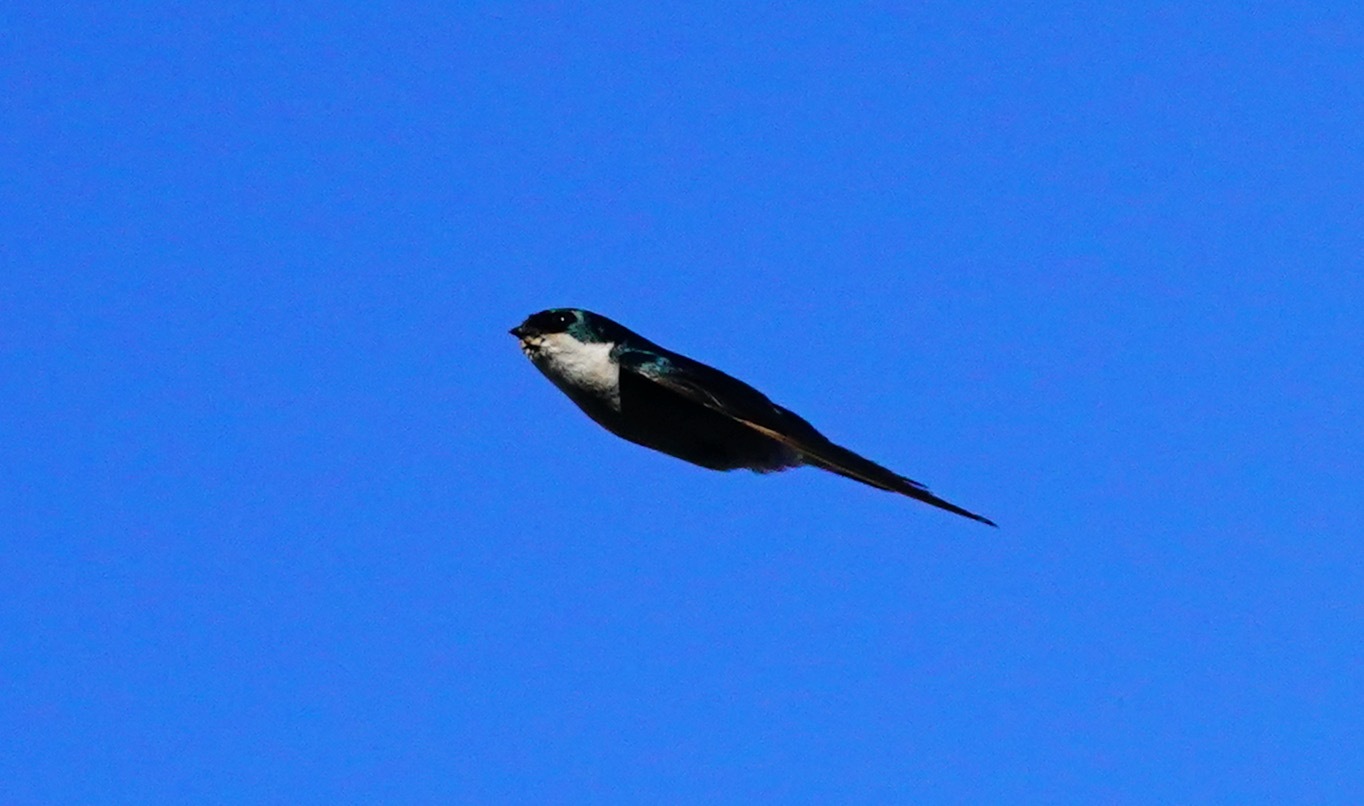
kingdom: Animalia
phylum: Chordata
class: Aves
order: Passeriformes
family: Hirundinidae
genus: Tachycineta
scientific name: Tachycineta bicolor
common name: Tree swallow
